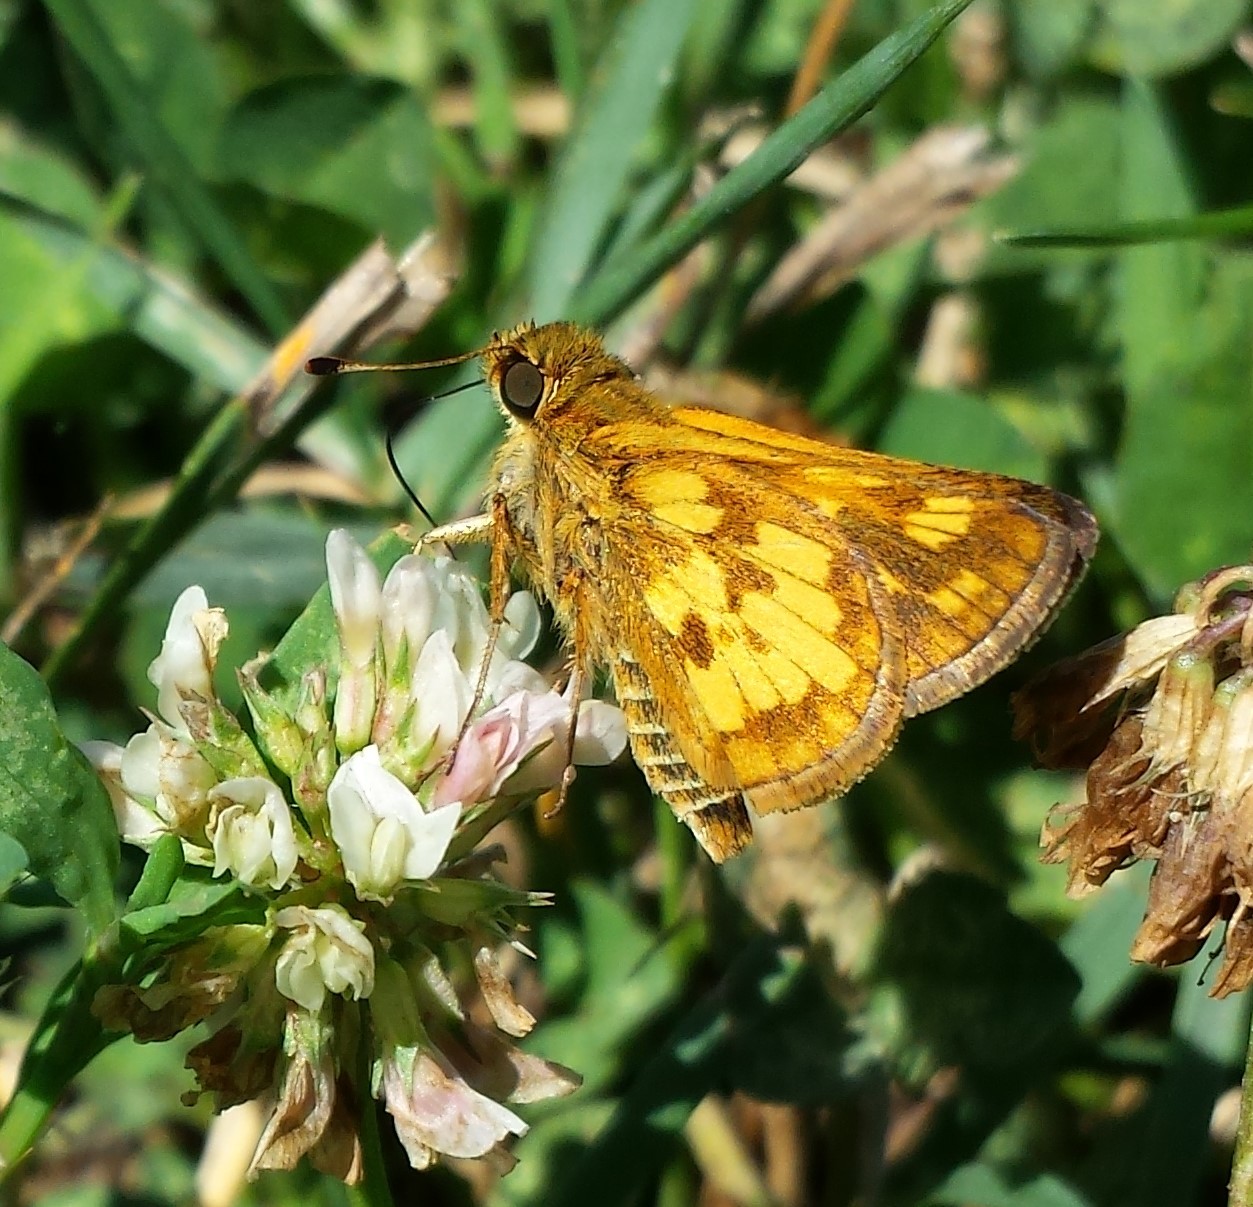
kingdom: Animalia
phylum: Arthropoda
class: Insecta
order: Lepidoptera
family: Hesperiidae
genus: Polites
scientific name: Polites coras
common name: Peck's skipper
